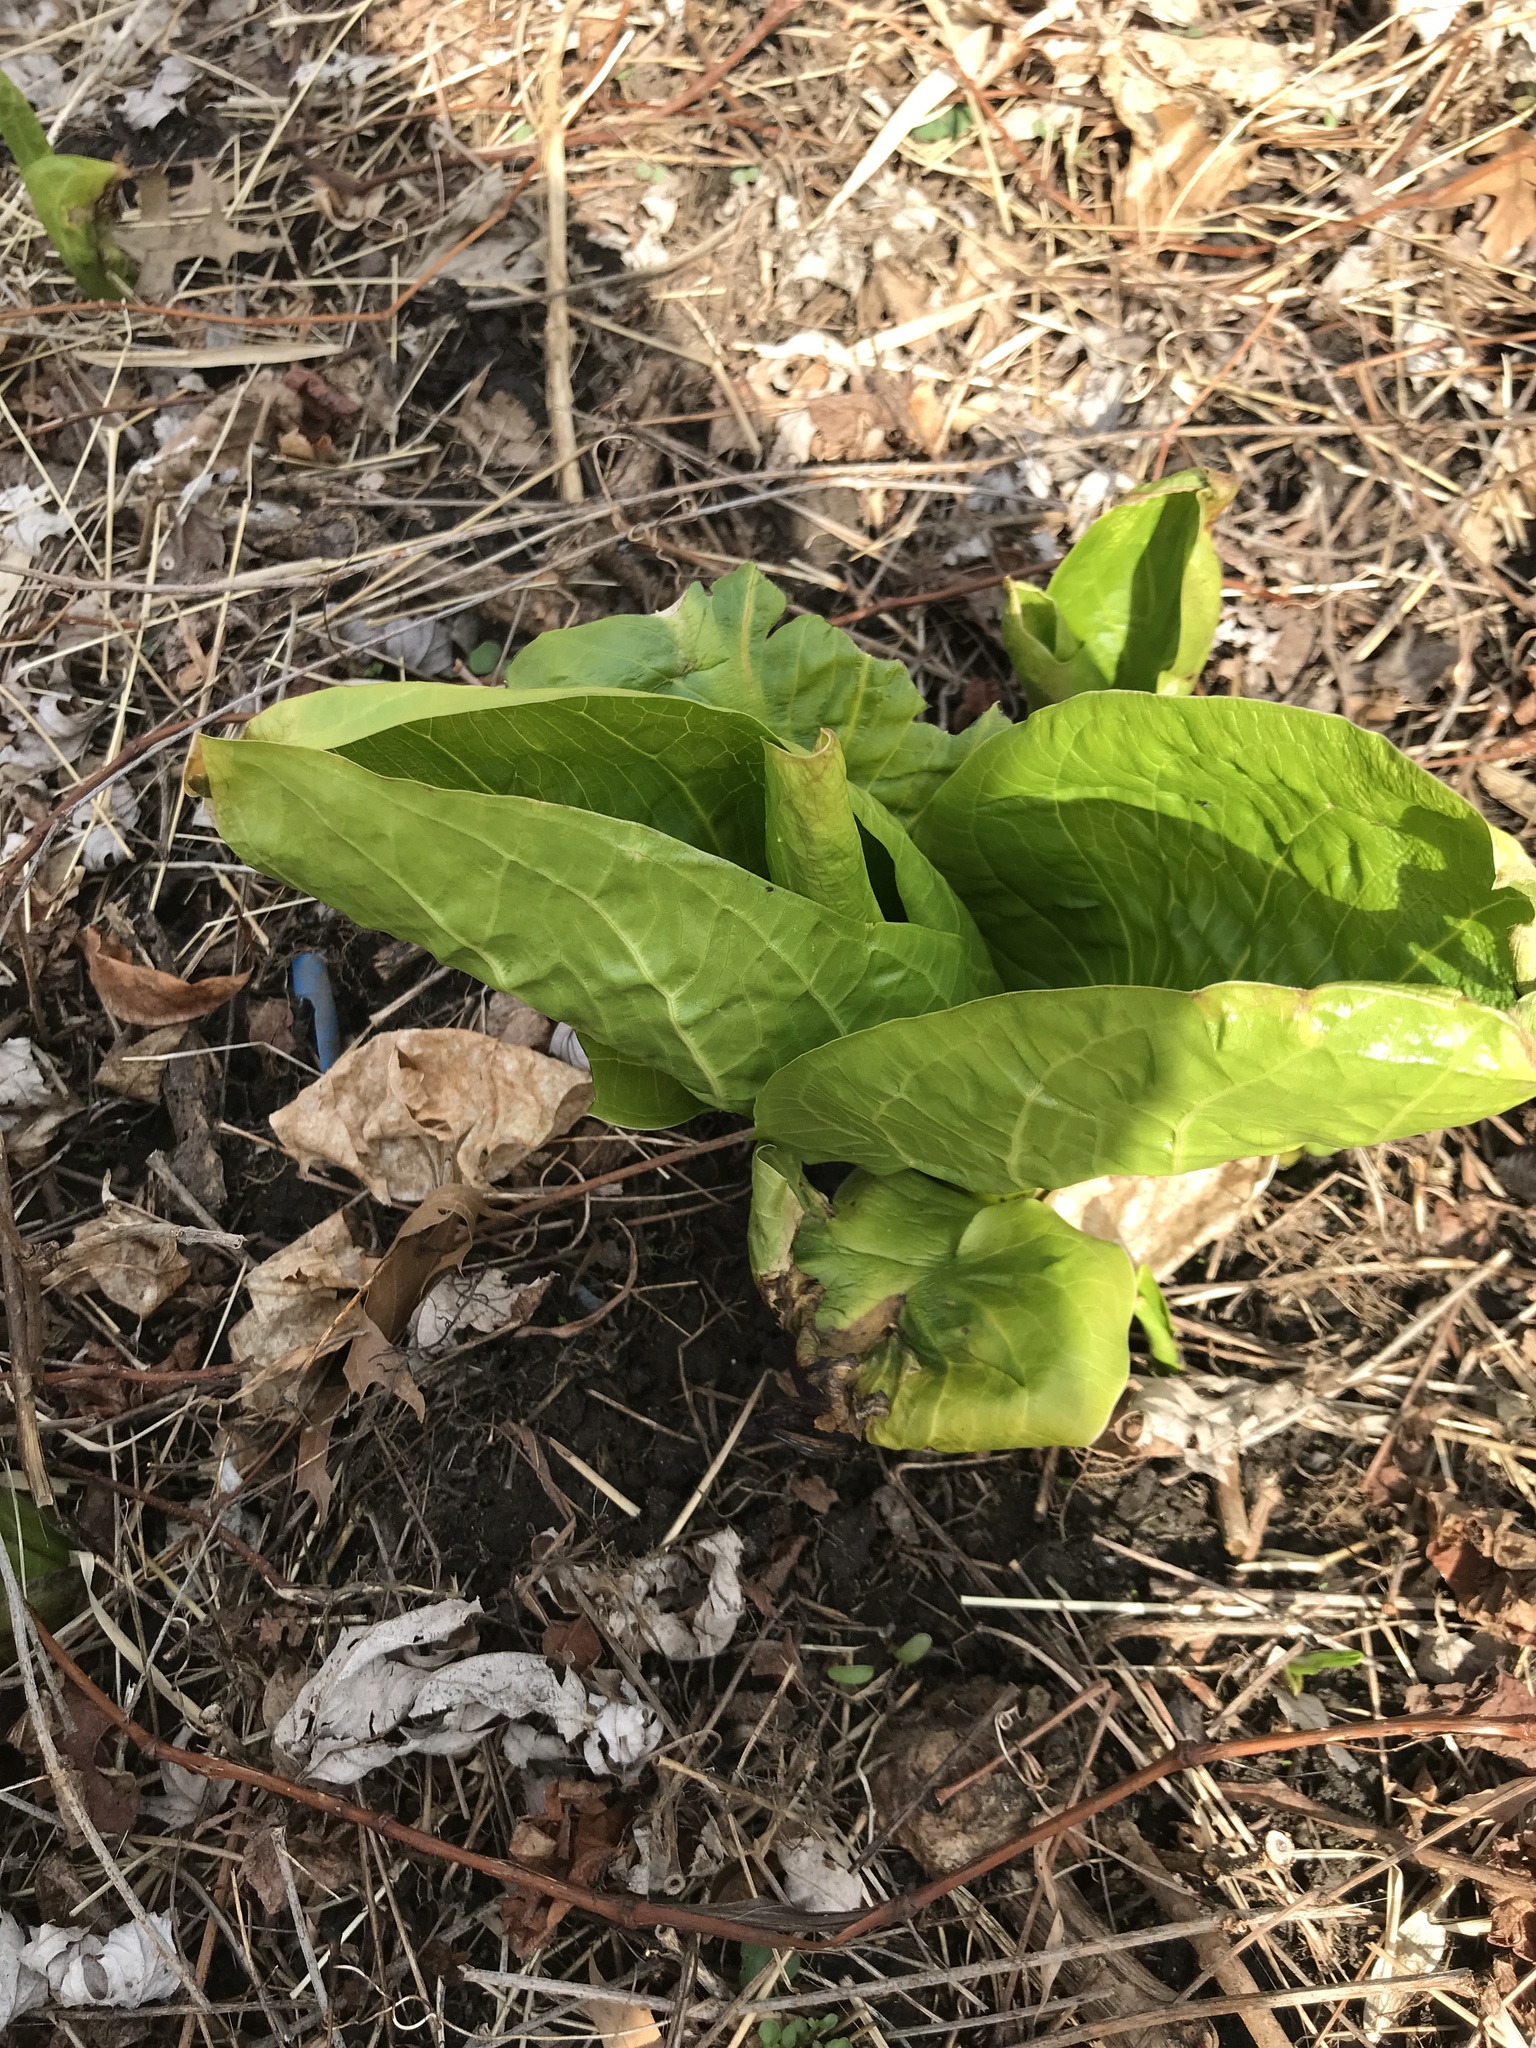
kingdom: Plantae
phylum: Tracheophyta
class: Liliopsida
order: Alismatales
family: Araceae
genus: Symplocarpus
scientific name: Symplocarpus foetidus
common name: Eastern skunk cabbage
